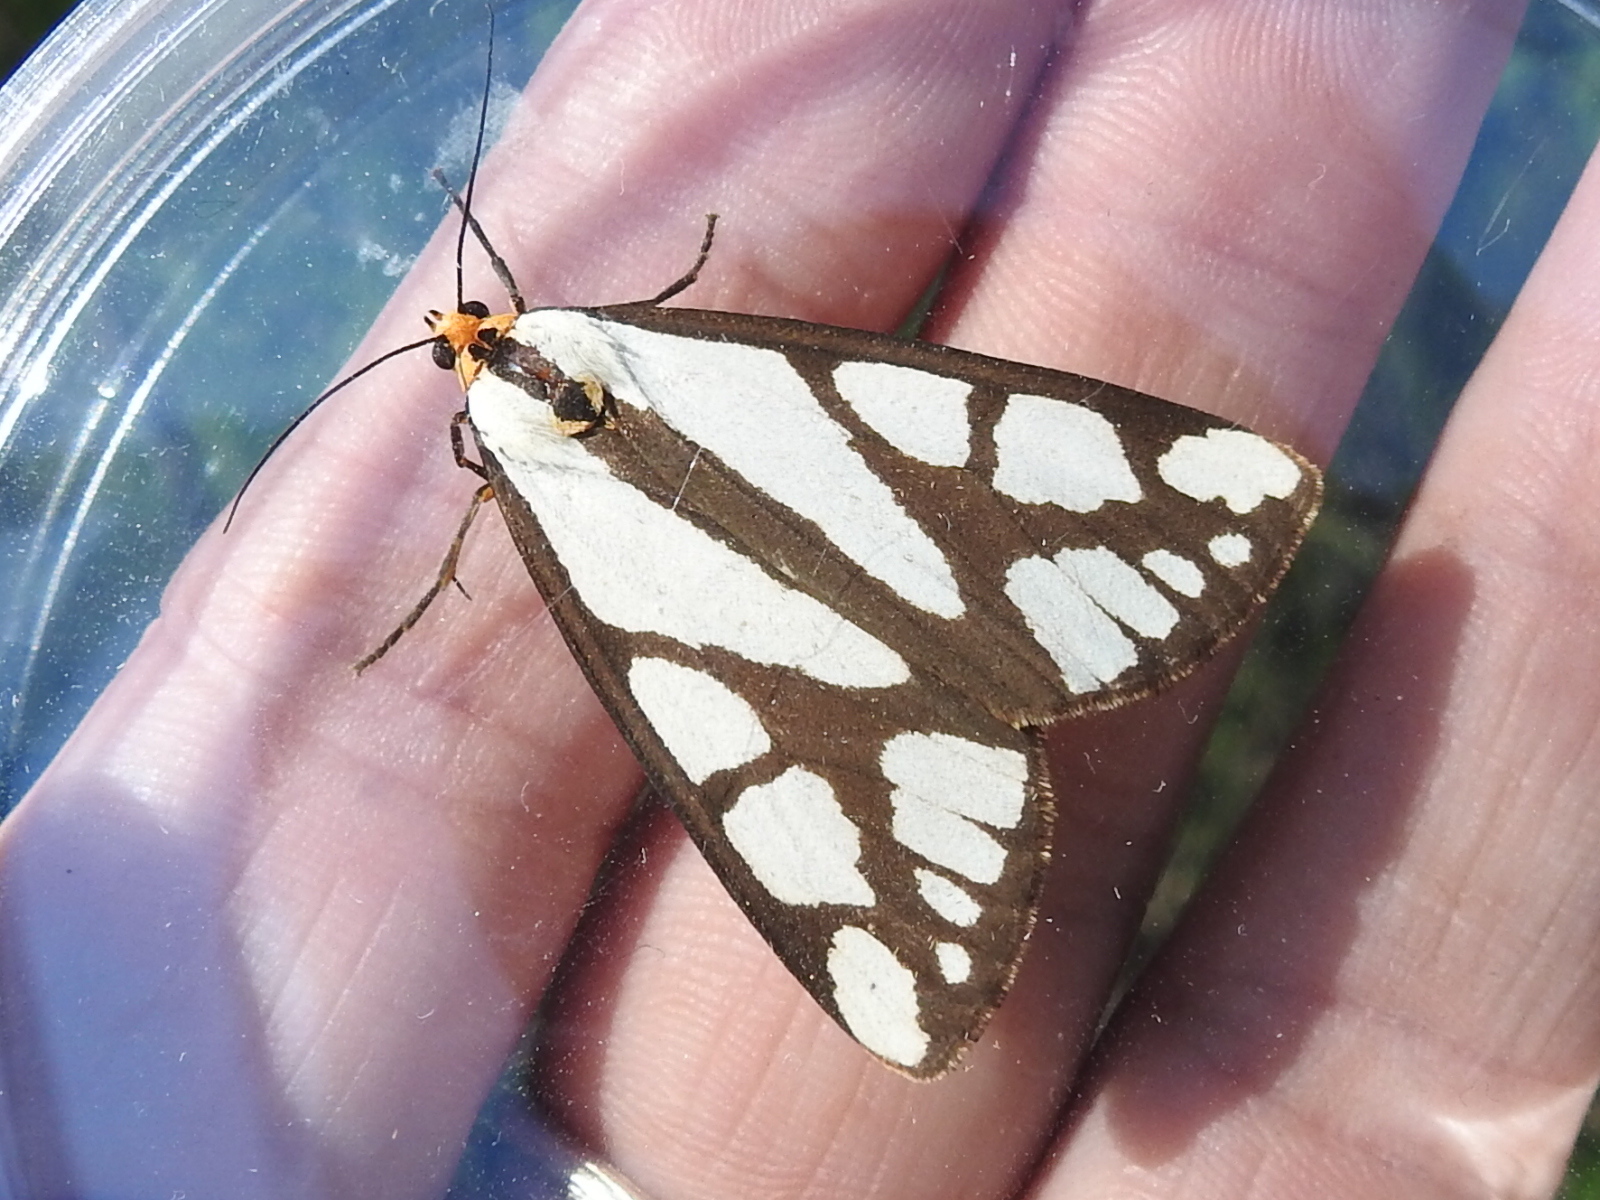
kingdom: Animalia
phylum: Arthropoda
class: Insecta
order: Lepidoptera
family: Erebidae
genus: Haploa
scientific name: Haploa colona
